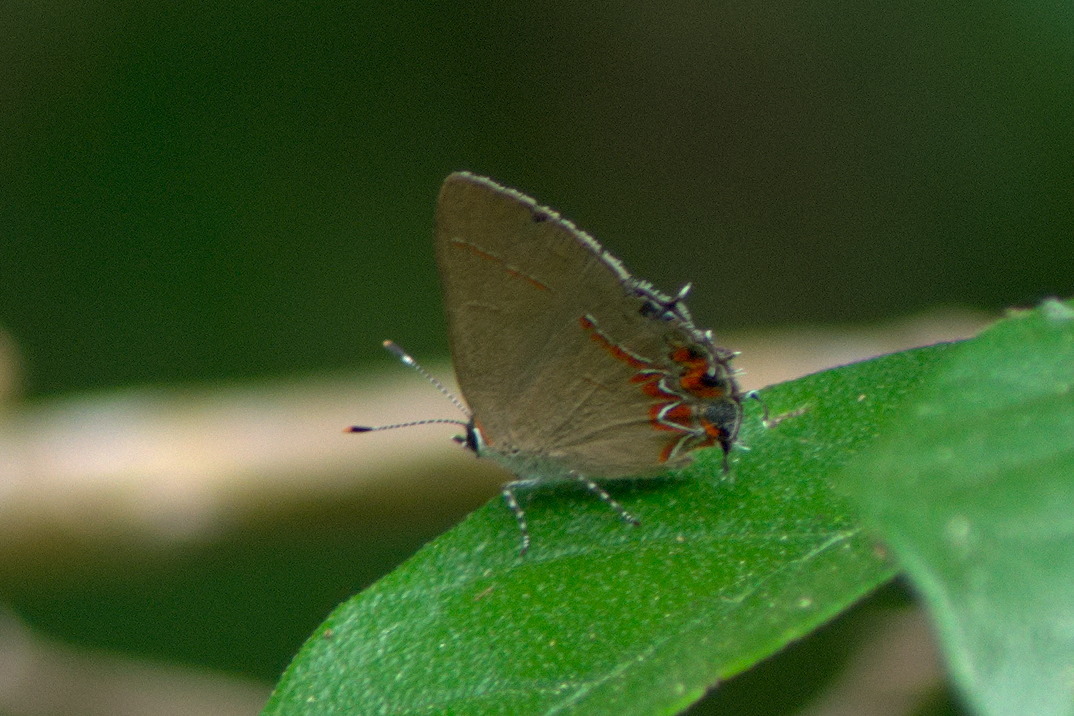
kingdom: Animalia
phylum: Arthropoda
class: Insecta
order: Lepidoptera
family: Lycaenidae
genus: Calycopis
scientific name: Calycopis isobeon
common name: Dusky-blue groundstreak
